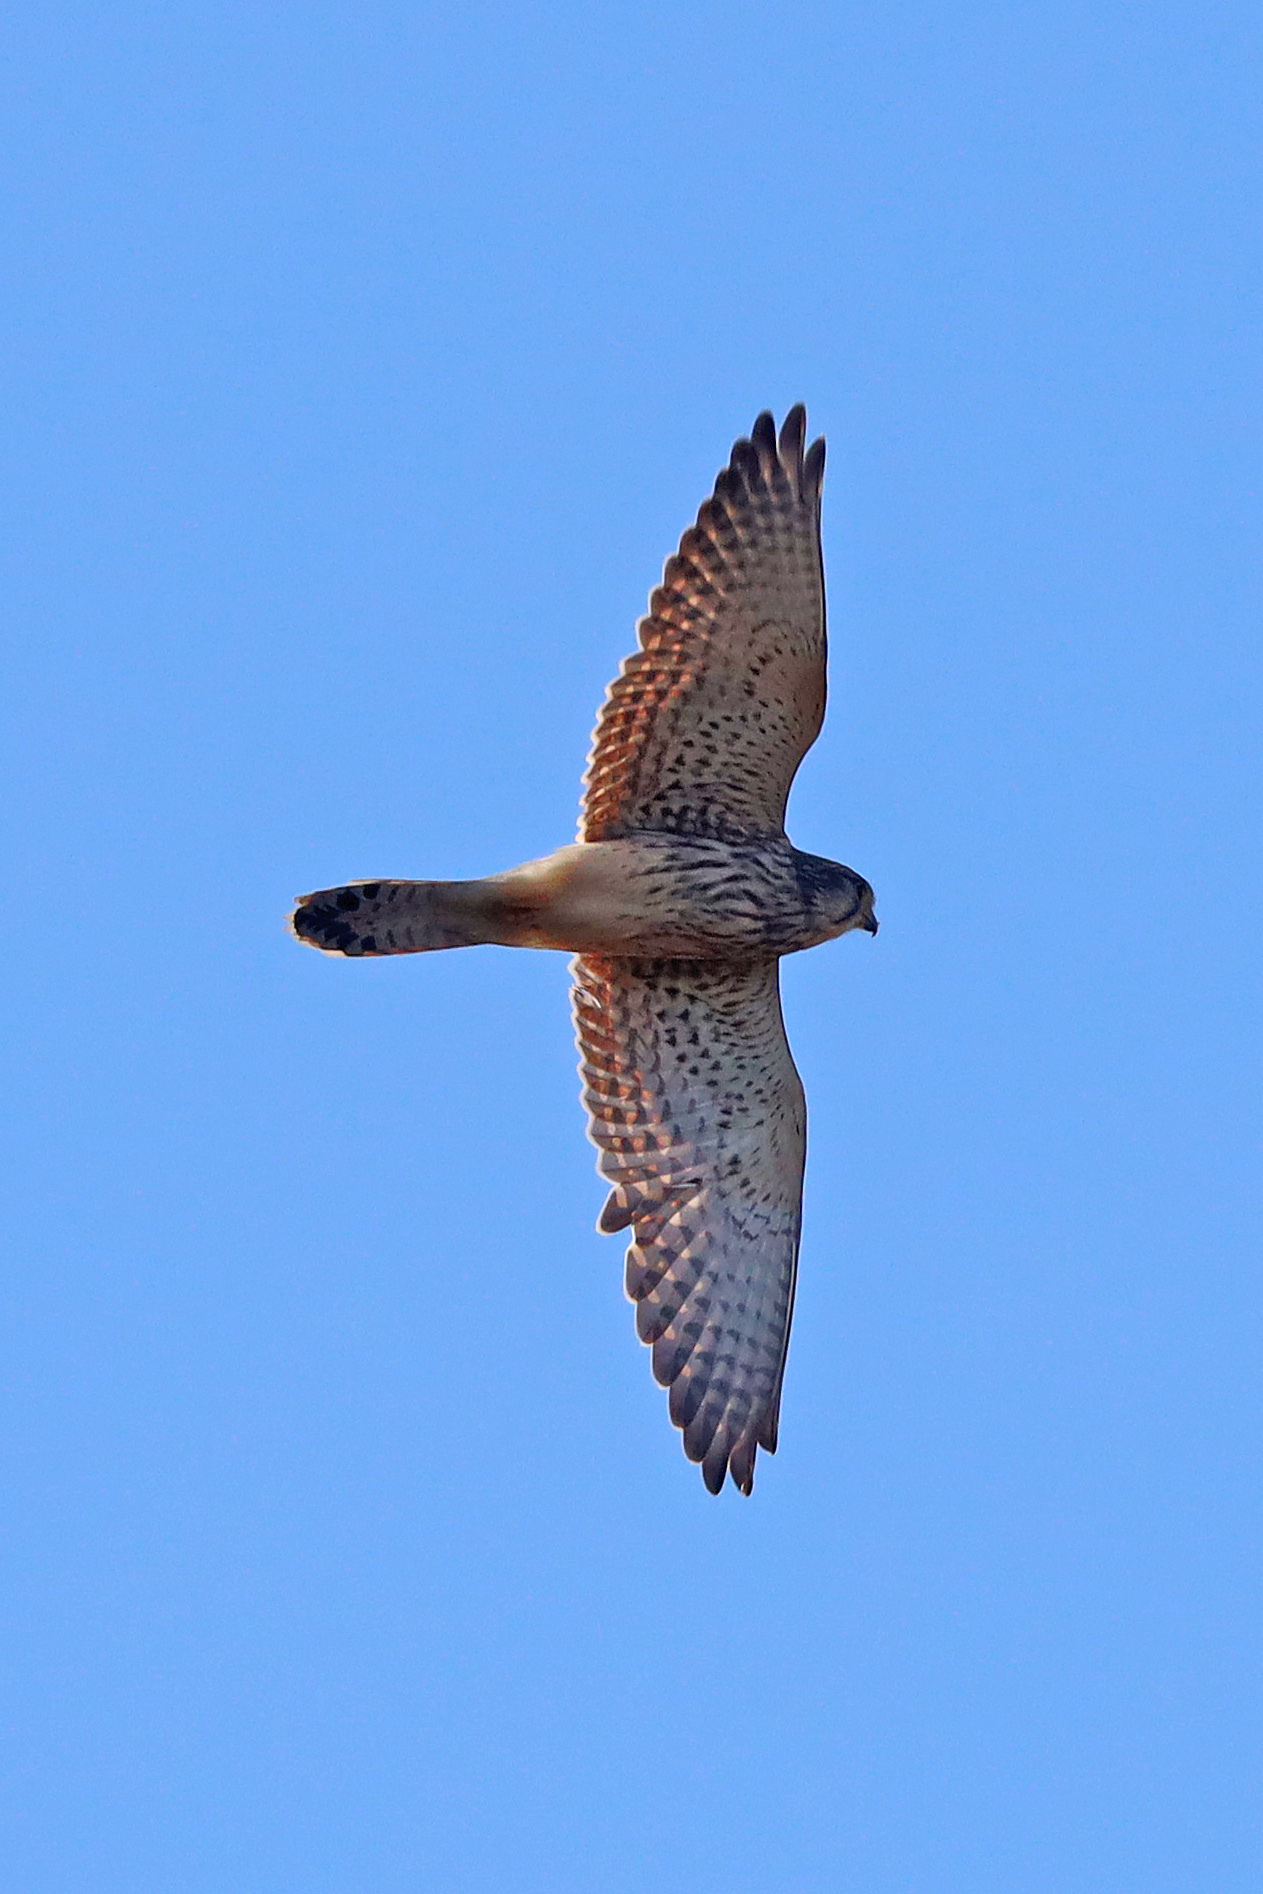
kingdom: Animalia
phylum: Chordata
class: Aves
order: Falconiformes
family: Falconidae
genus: Falco
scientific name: Falco tinnunculus
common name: Common kestrel
